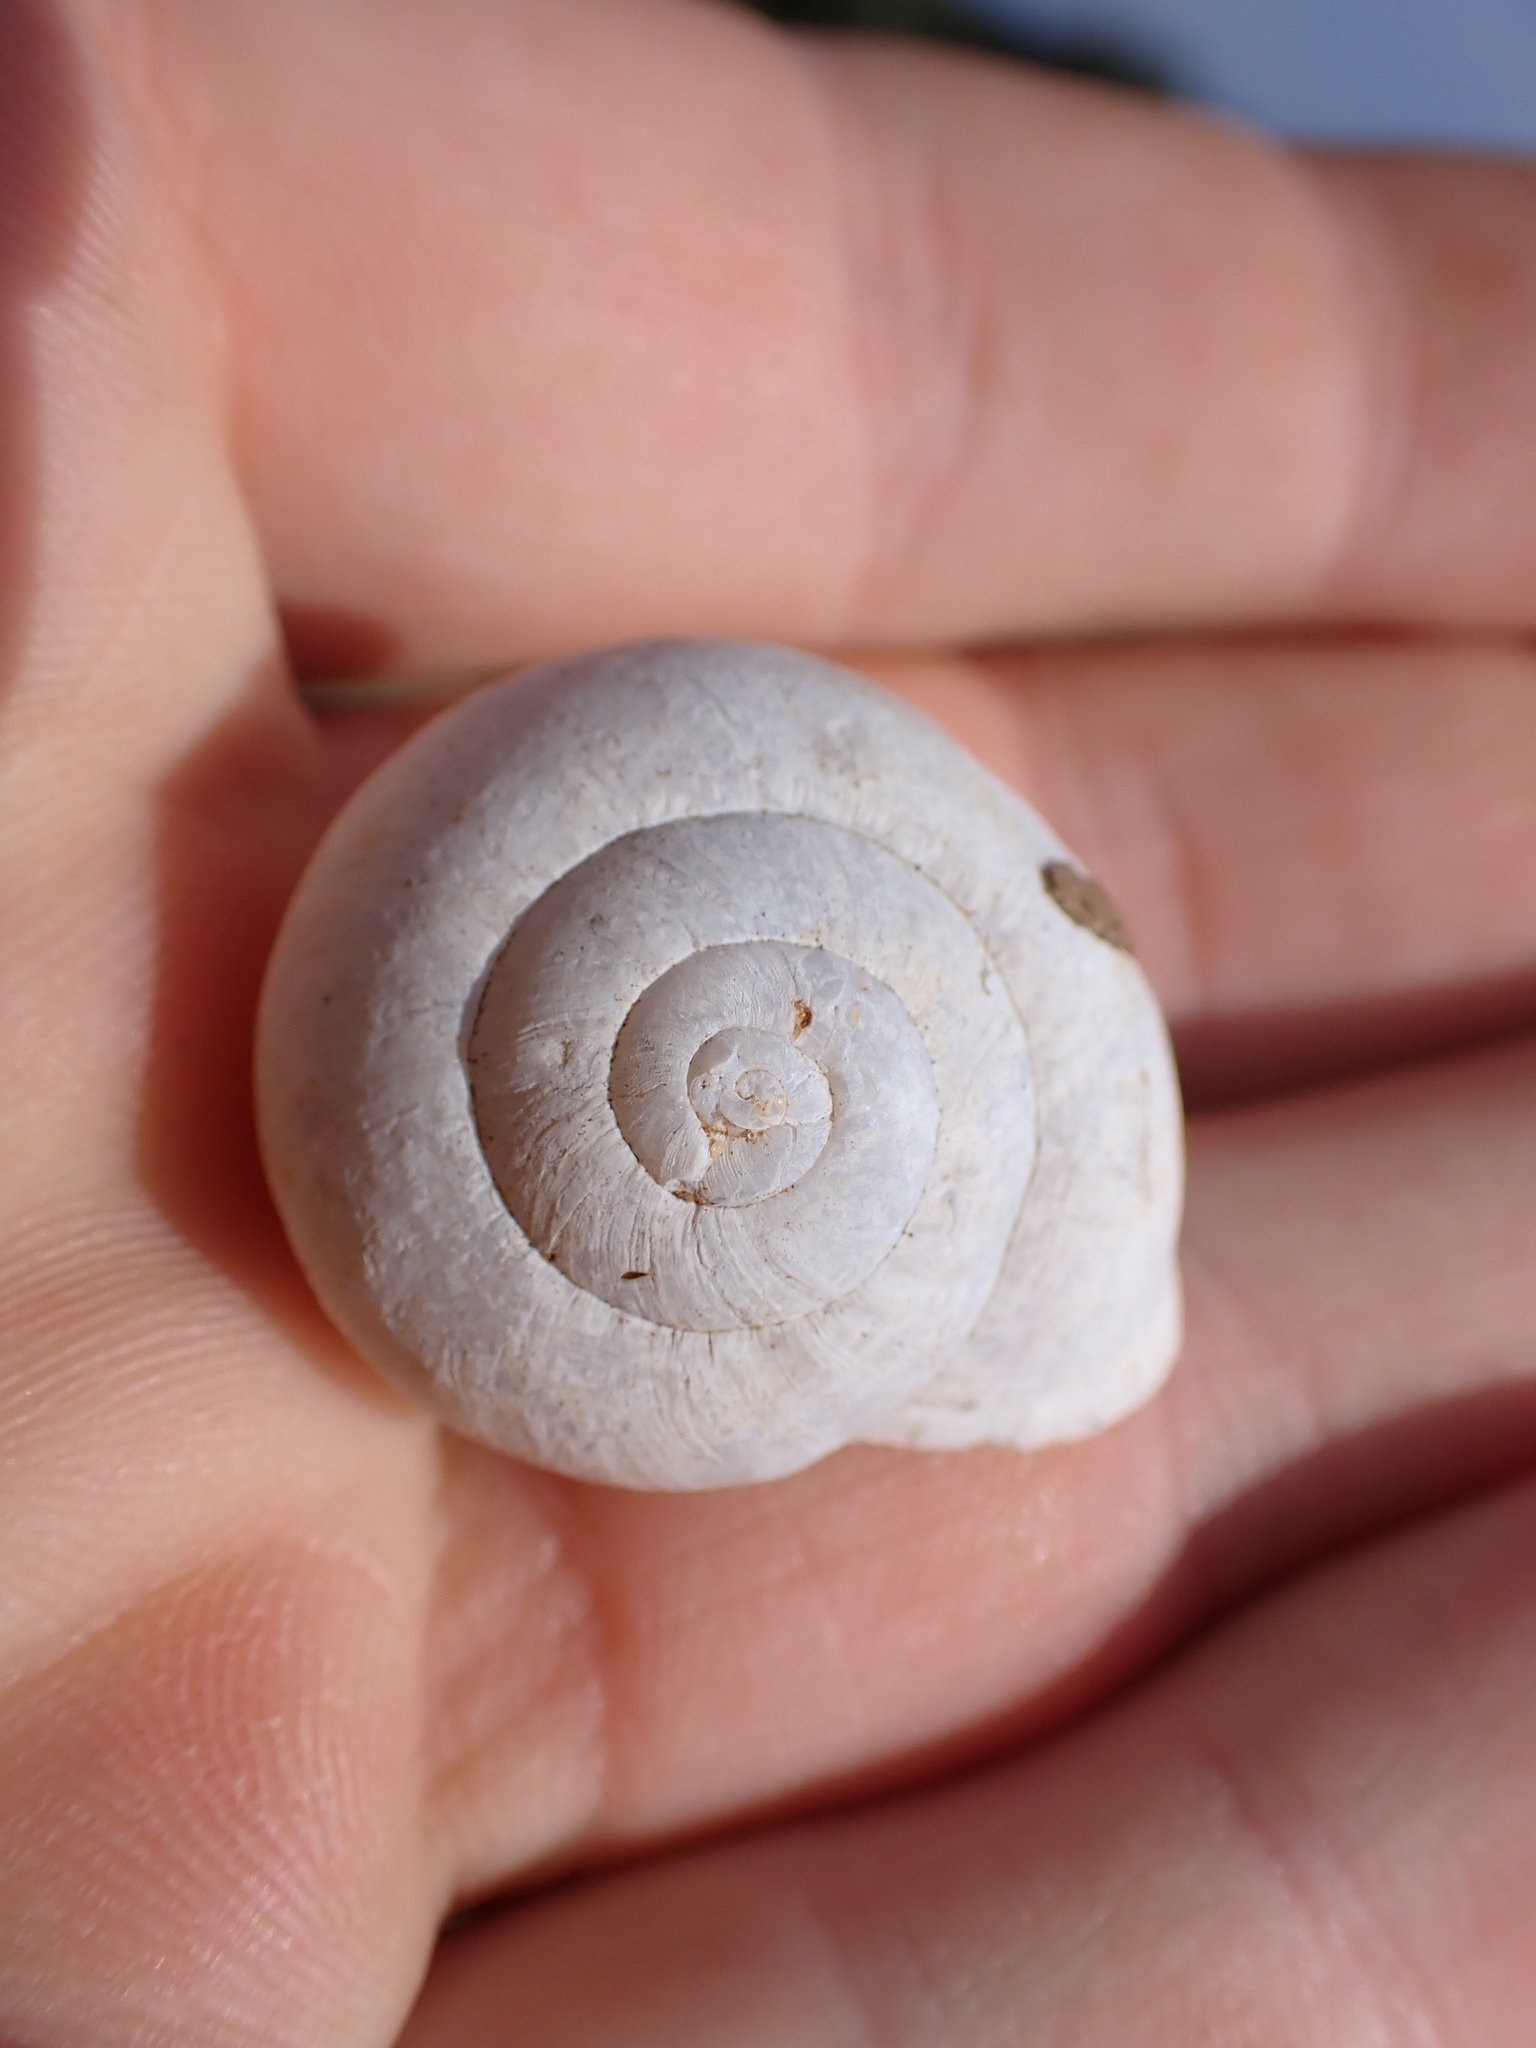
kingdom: Animalia
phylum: Mollusca
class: Gastropoda
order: Stylommatophora
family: Helicidae
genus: Eobania
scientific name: Eobania vermiculata
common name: Chocolateband snail
